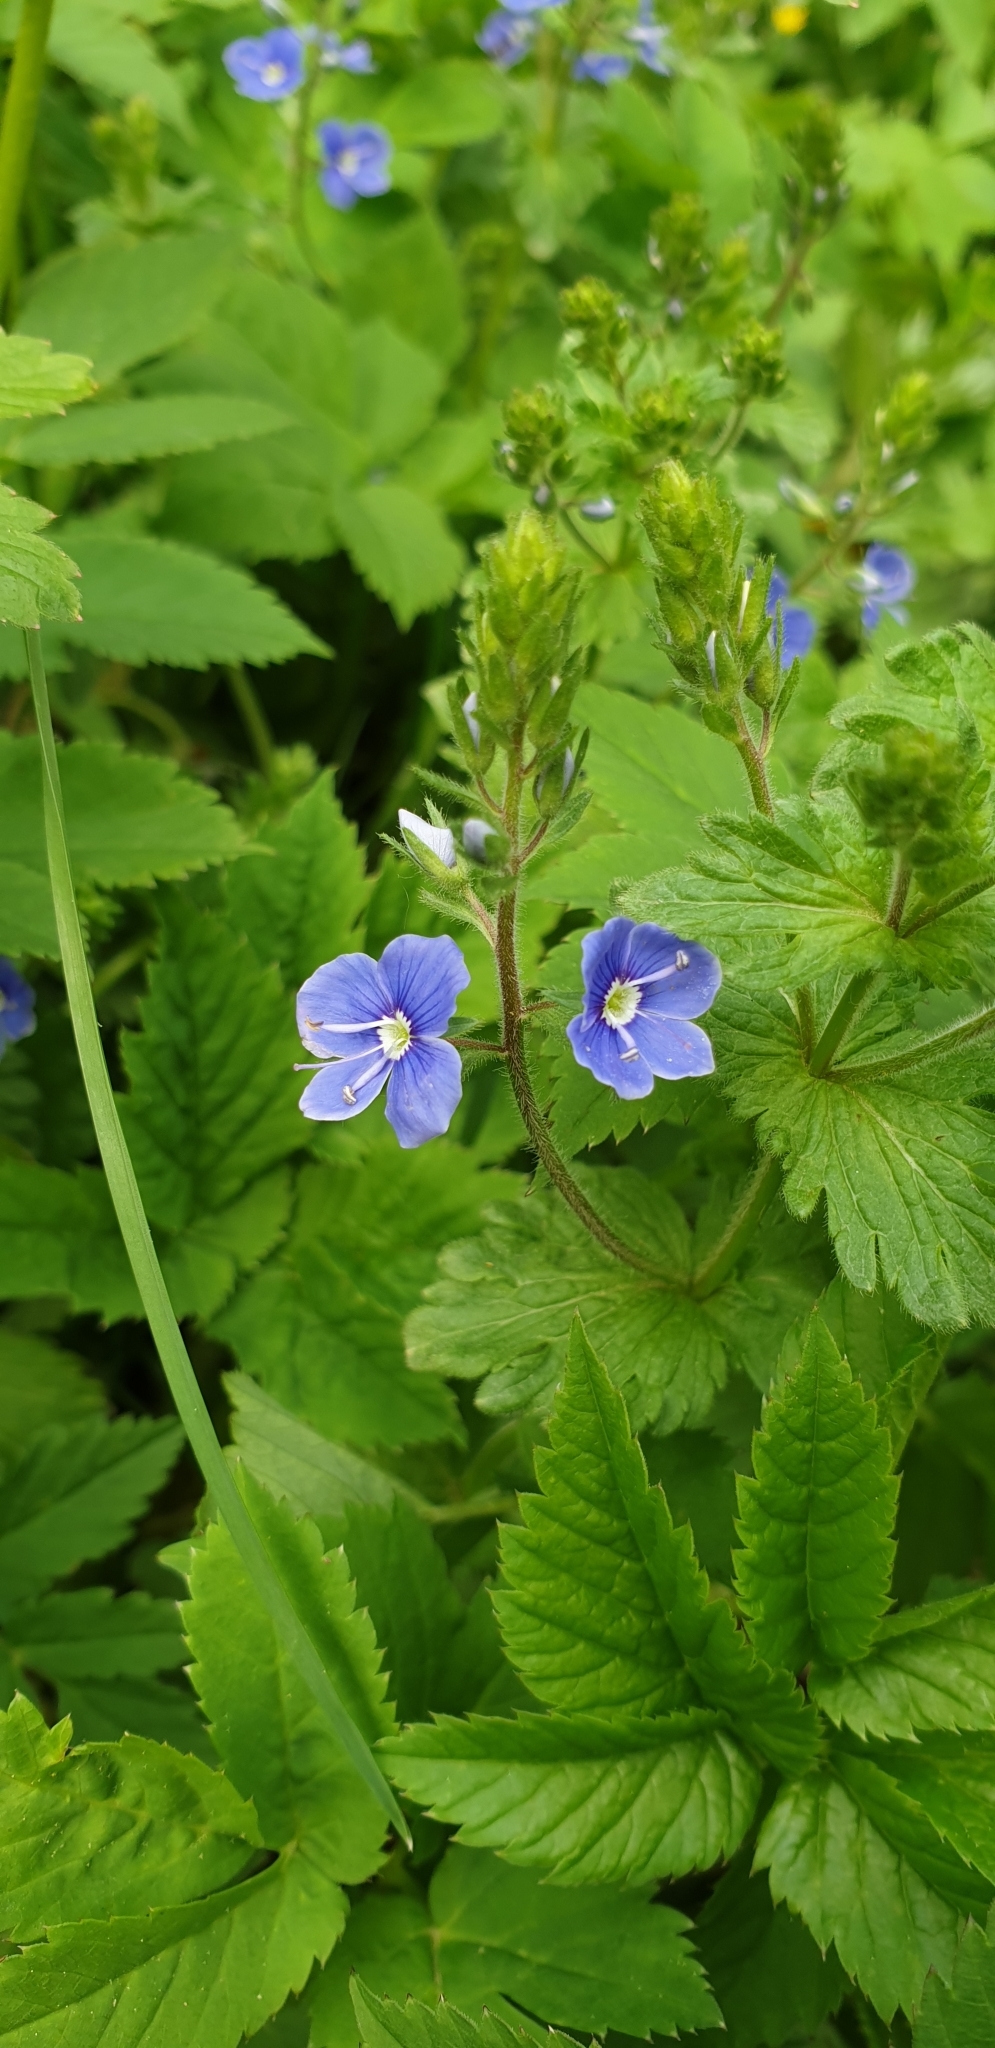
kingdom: Plantae
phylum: Tracheophyta
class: Magnoliopsida
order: Lamiales
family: Plantaginaceae
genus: Veronica
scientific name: Veronica chamaedrys
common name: Germander speedwell
